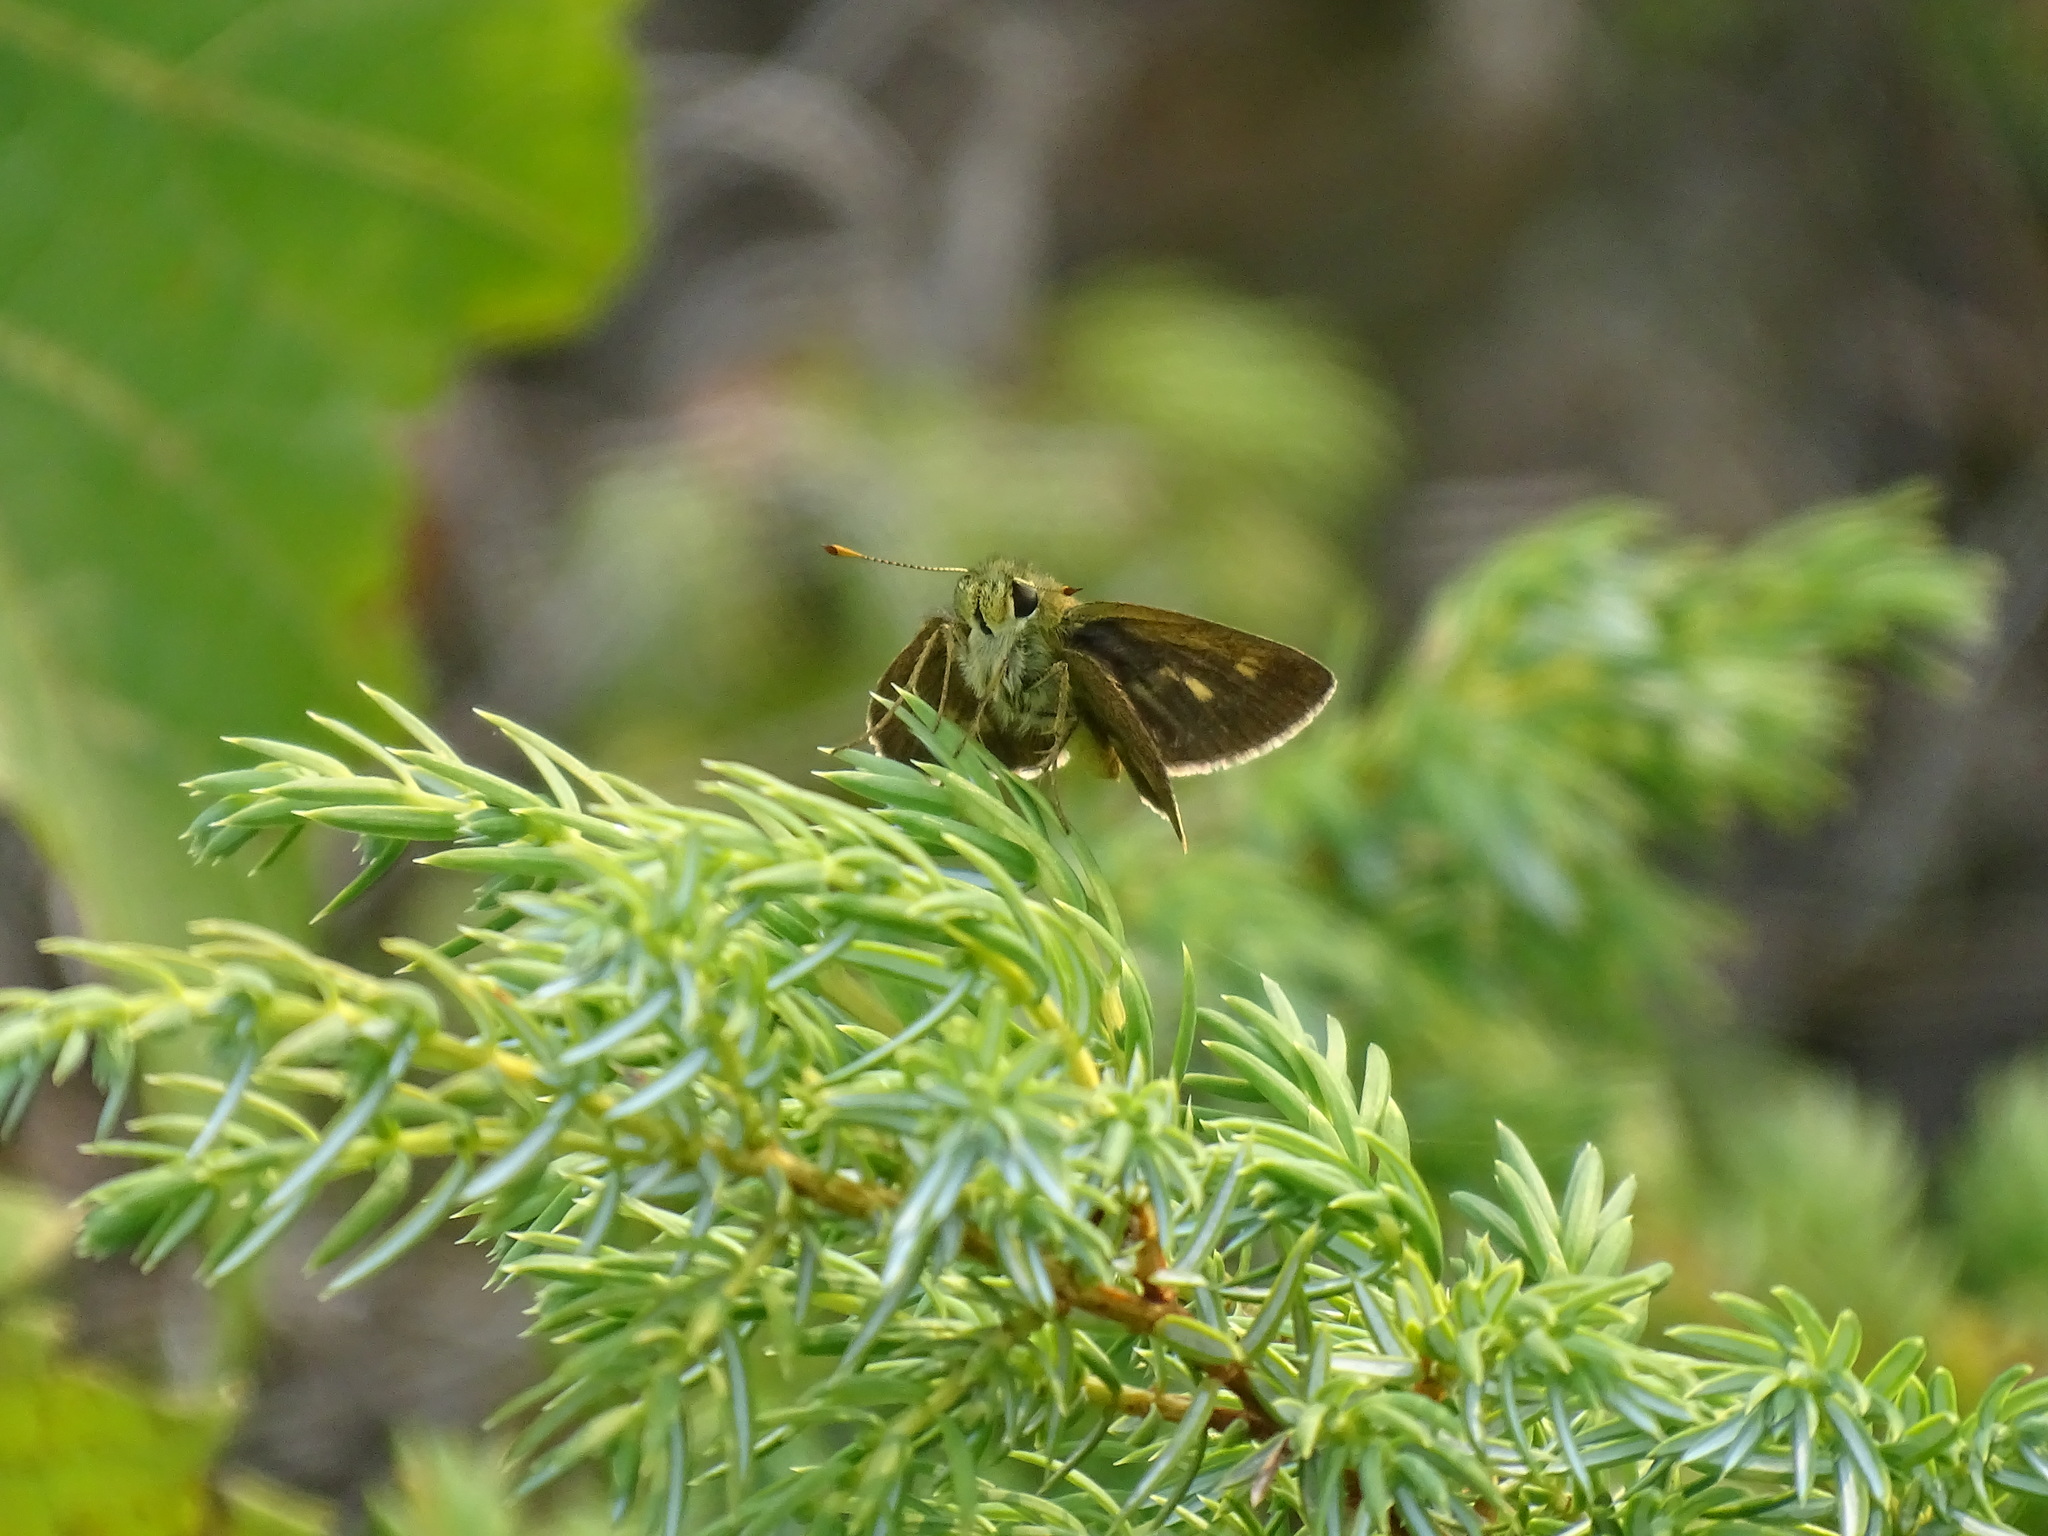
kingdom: Animalia
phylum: Arthropoda
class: Insecta
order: Lepidoptera
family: Hesperiidae
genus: Polites
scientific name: Polites egeremet
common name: Northern broken-dash
